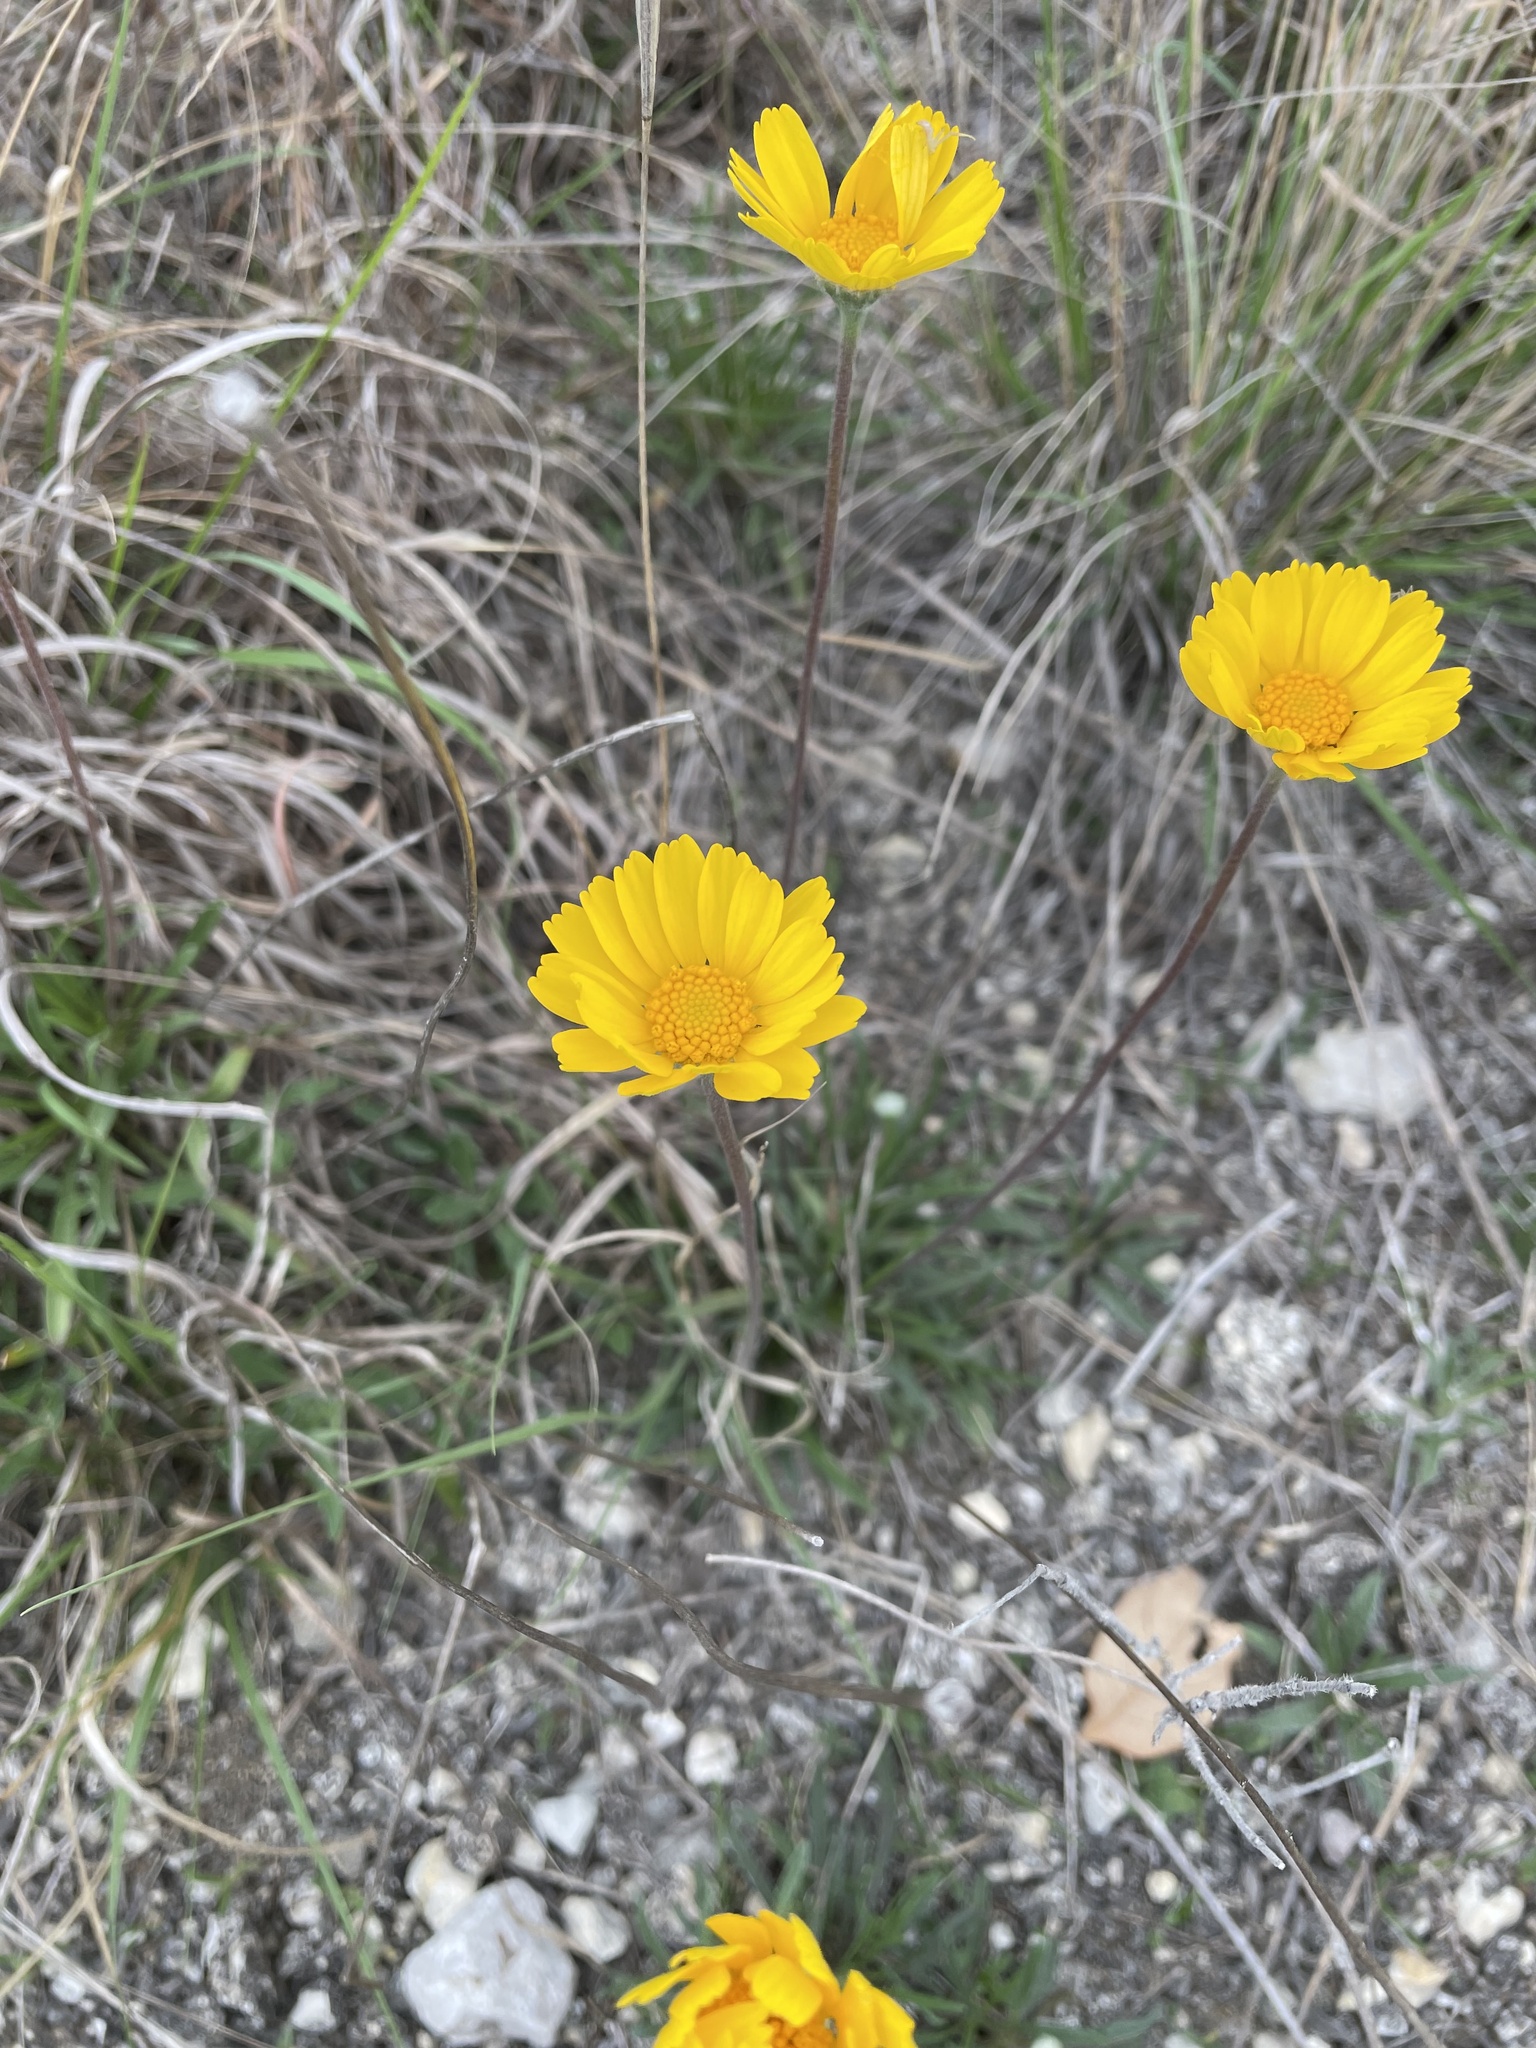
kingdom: Plantae
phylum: Tracheophyta
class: Magnoliopsida
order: Asterales
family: Asteraceae
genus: Tetraneuris
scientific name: Tetraneuris scaposa
